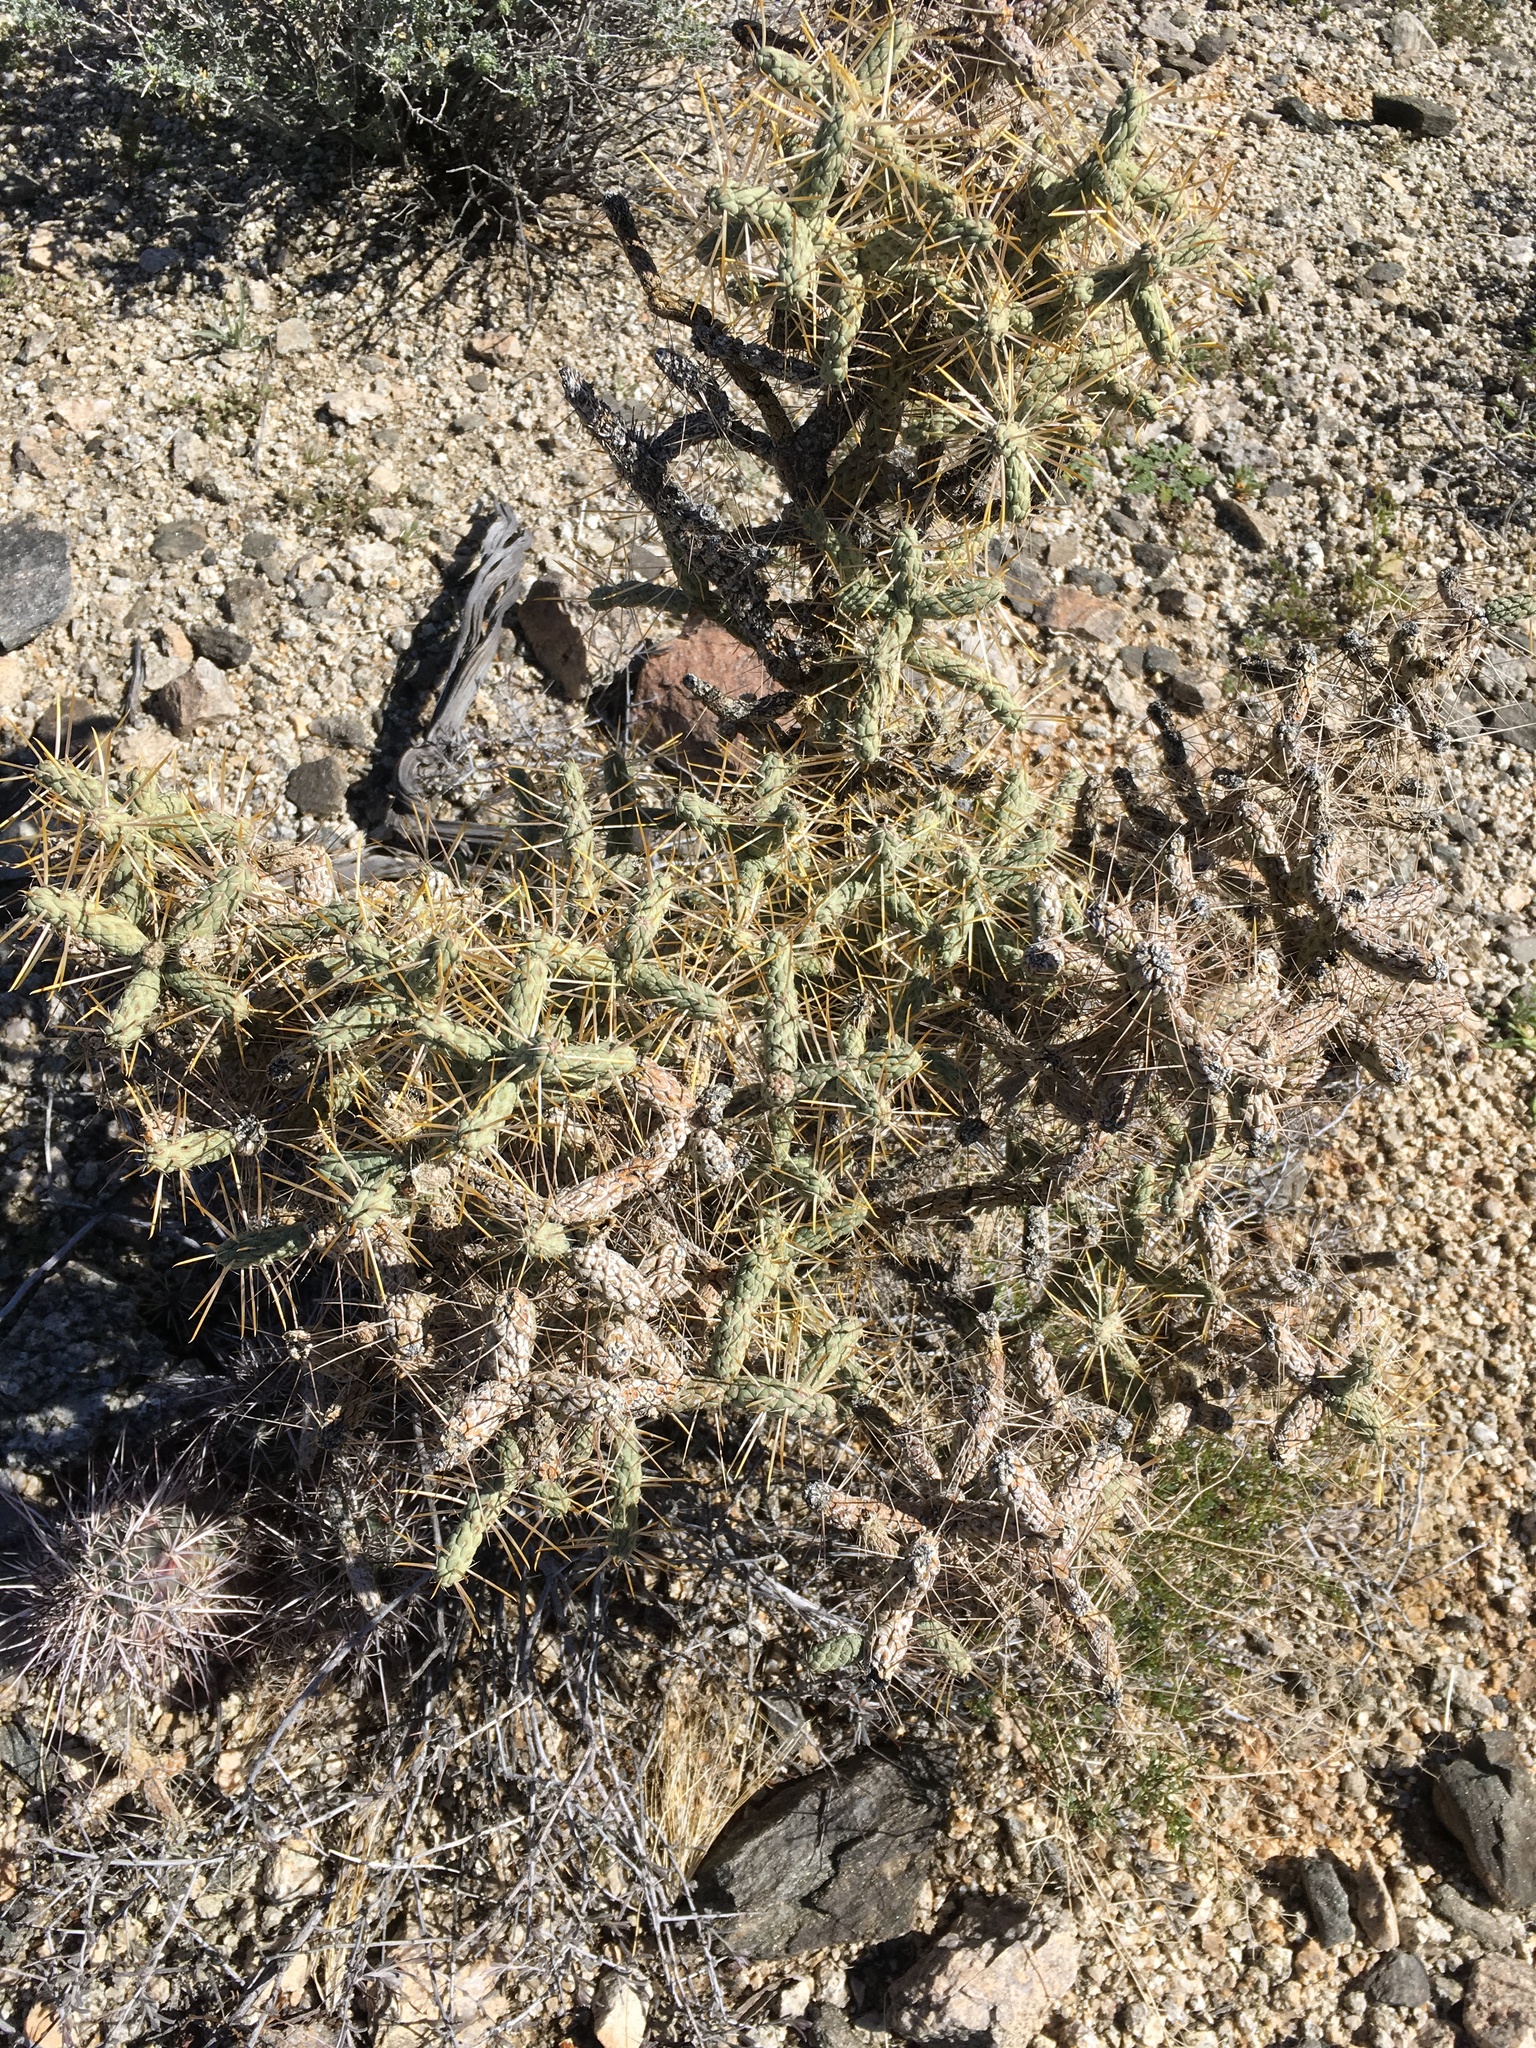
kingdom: Plantae
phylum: Tracheophyta
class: Magnoliopsida
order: Caryophyllales
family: Cactaceae
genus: Cylindropuntia
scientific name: Cylindropuntia ramosissima
